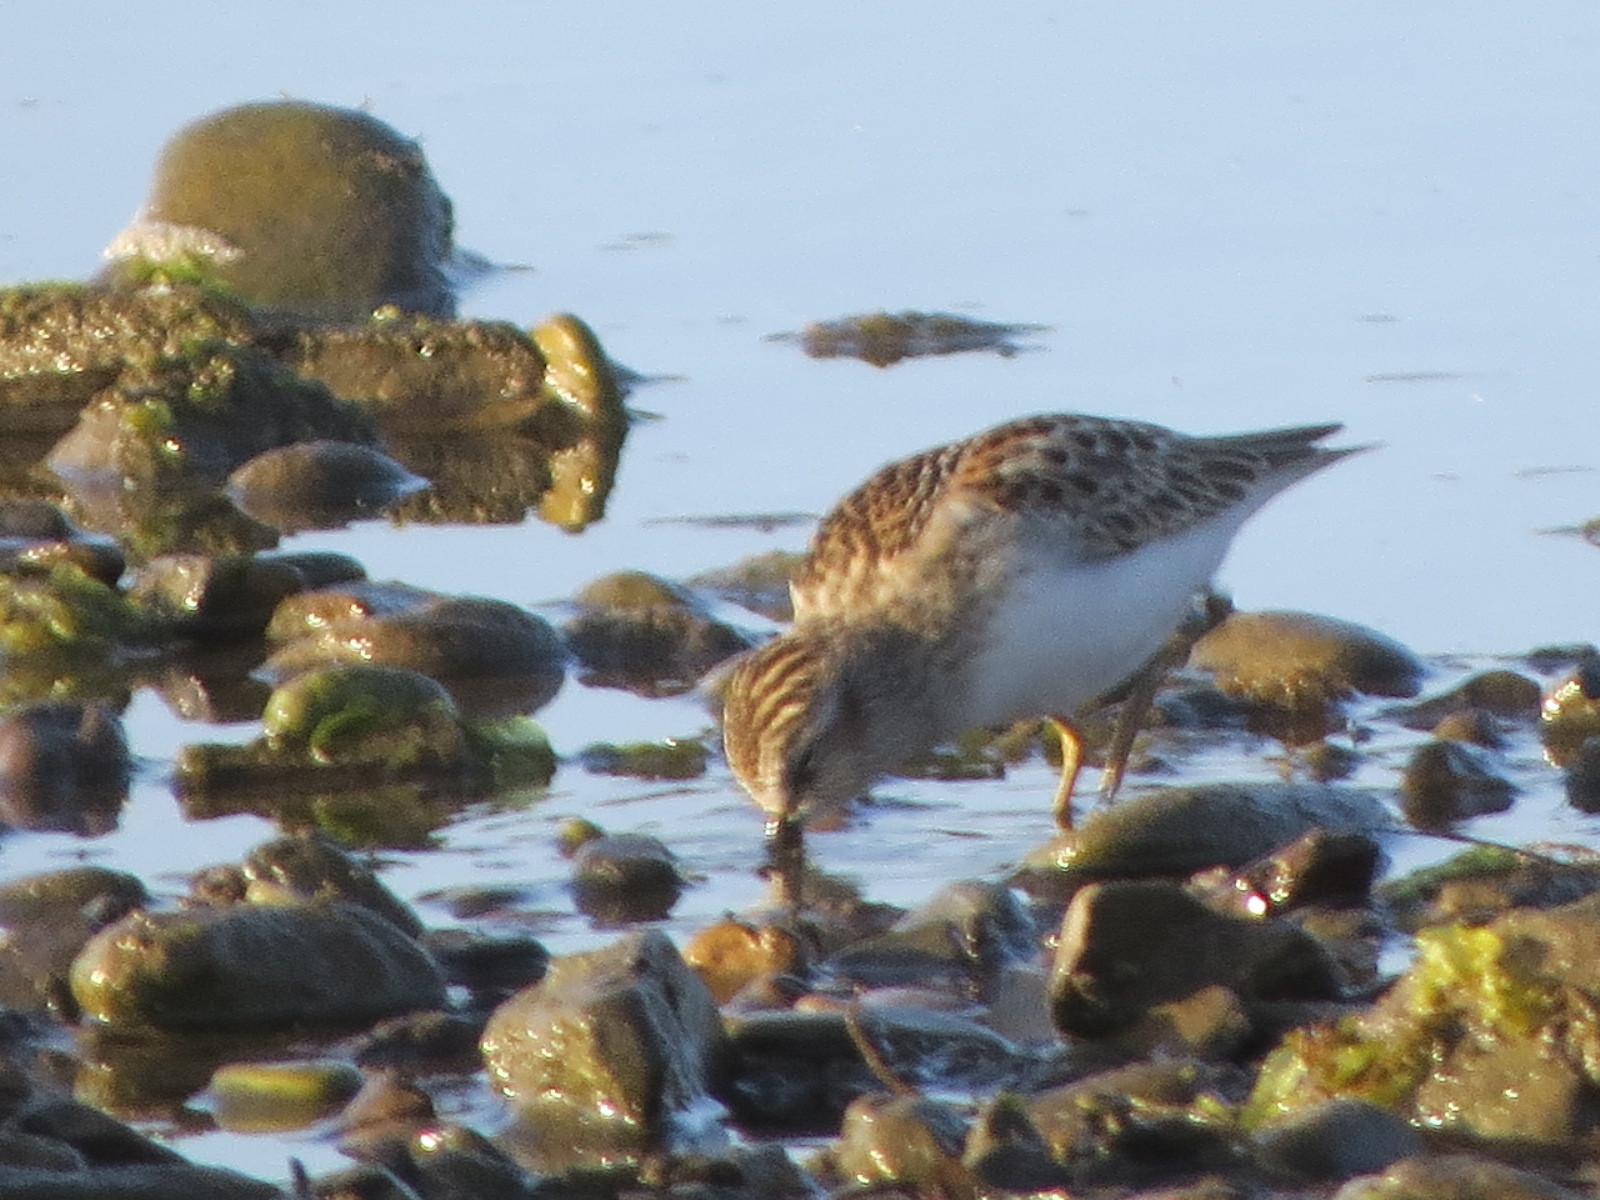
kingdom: Animalia
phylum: Chordata
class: Aves
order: Charadriiformes
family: Scolopacidae
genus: Calidris
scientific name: Calidris minutilla
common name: Least sandpiper
